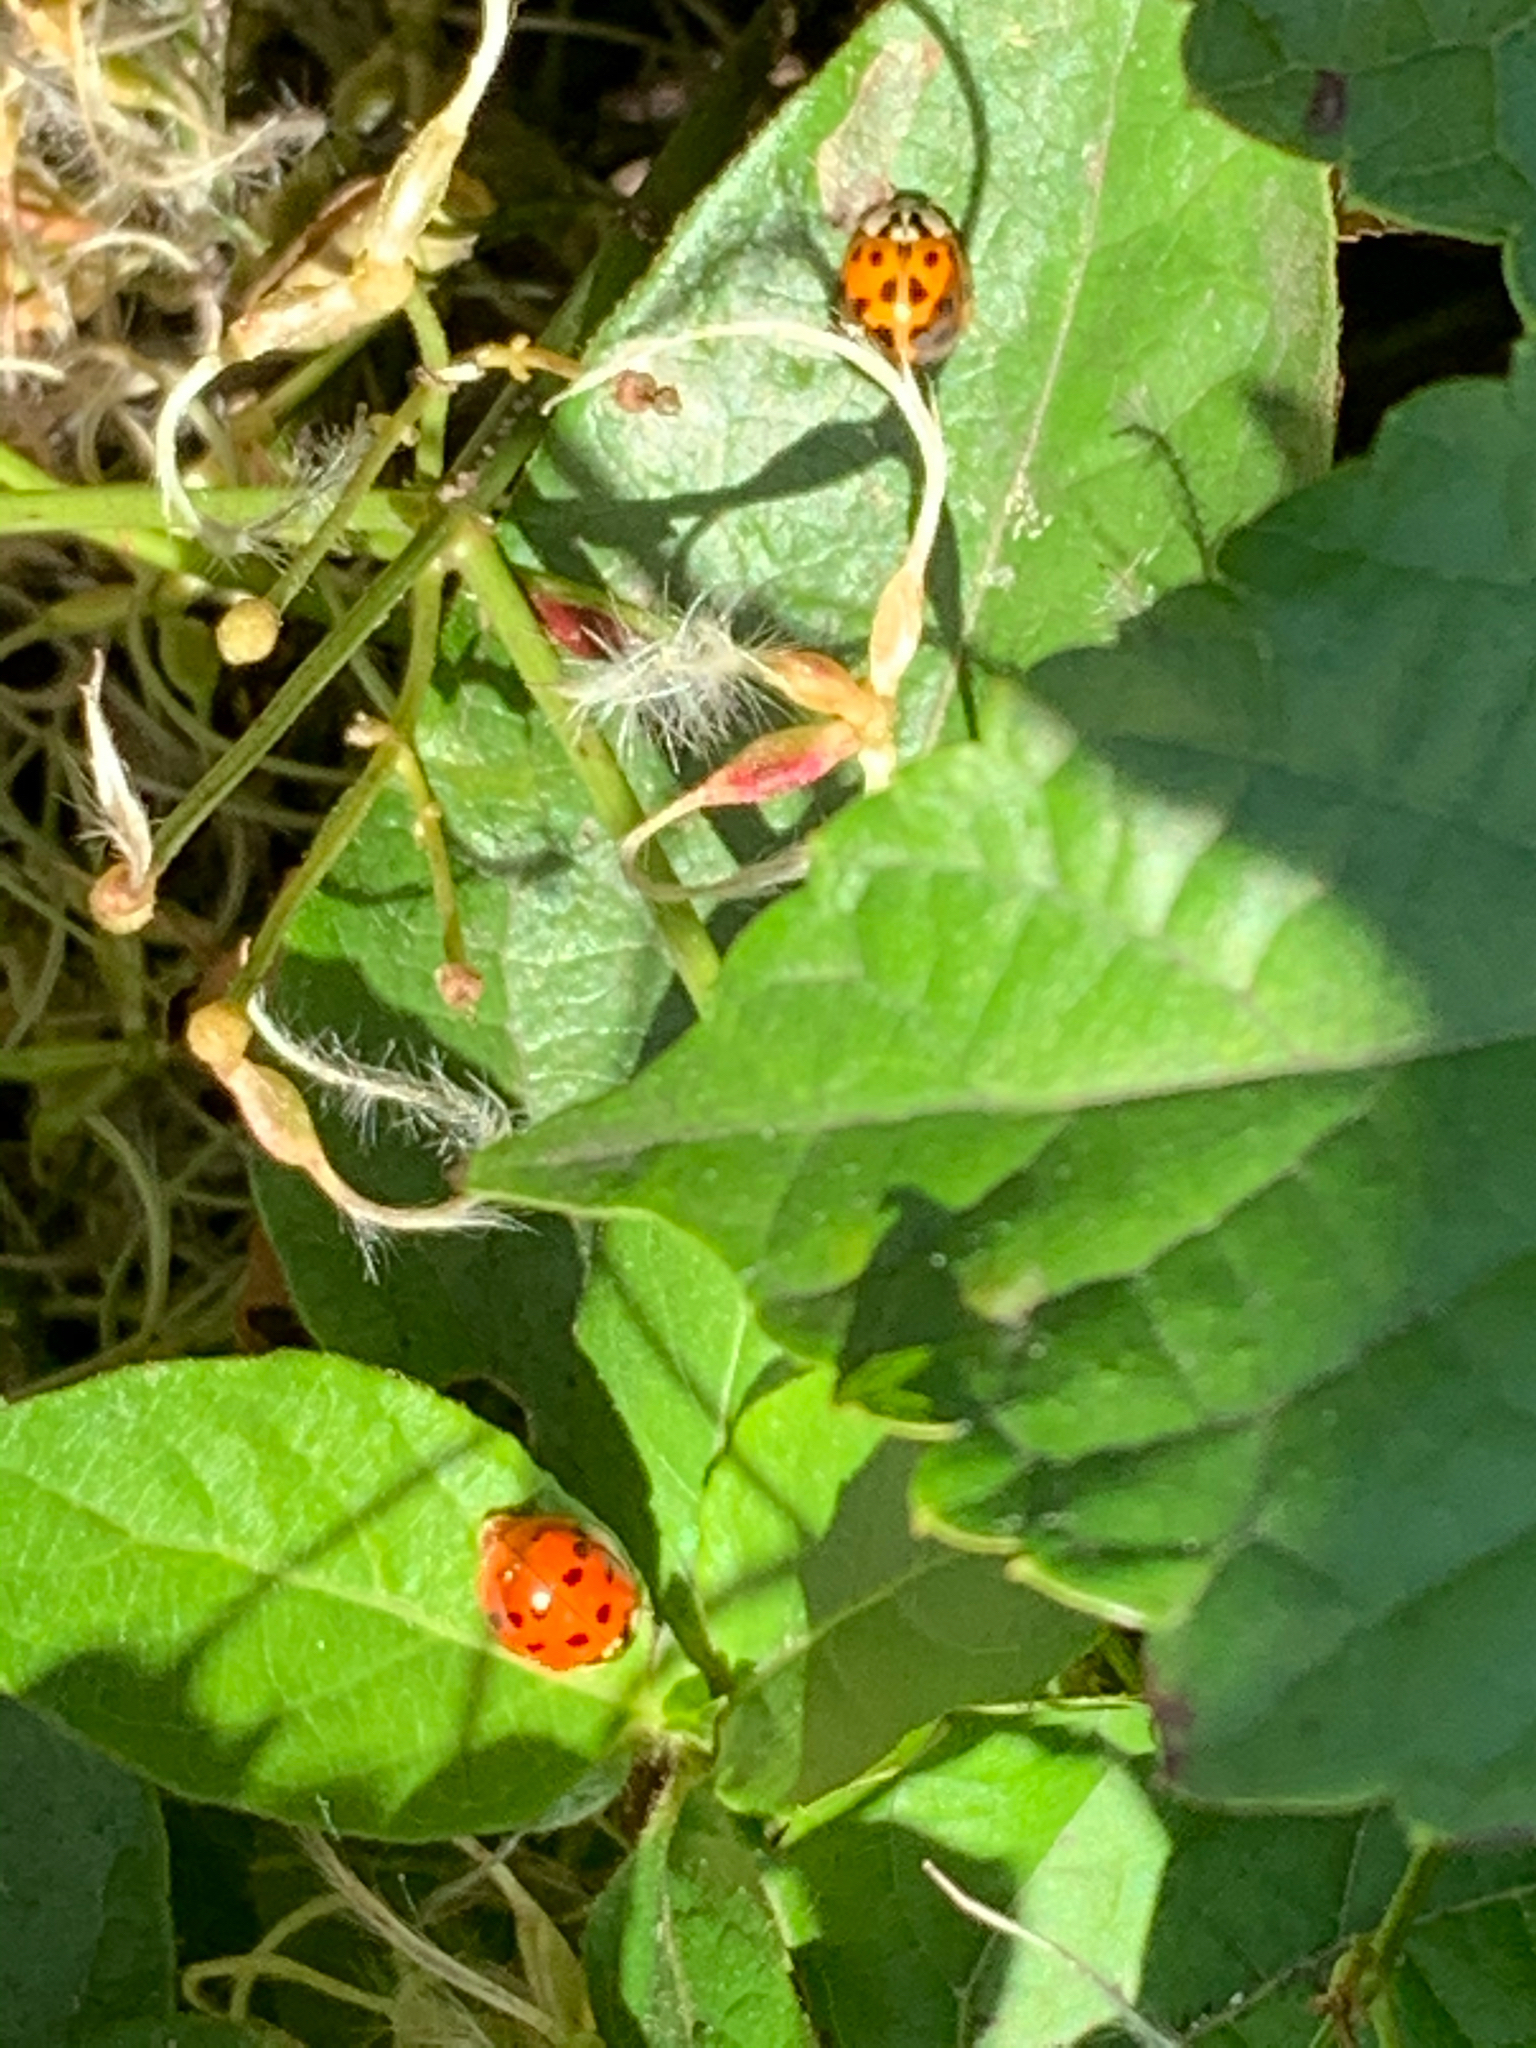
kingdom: Animalia
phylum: Arthropoda
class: Insecta
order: Coleoptera
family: Coccinellidae
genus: Harmonia
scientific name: Harmonia axyridis
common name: Harlequin ladybird
